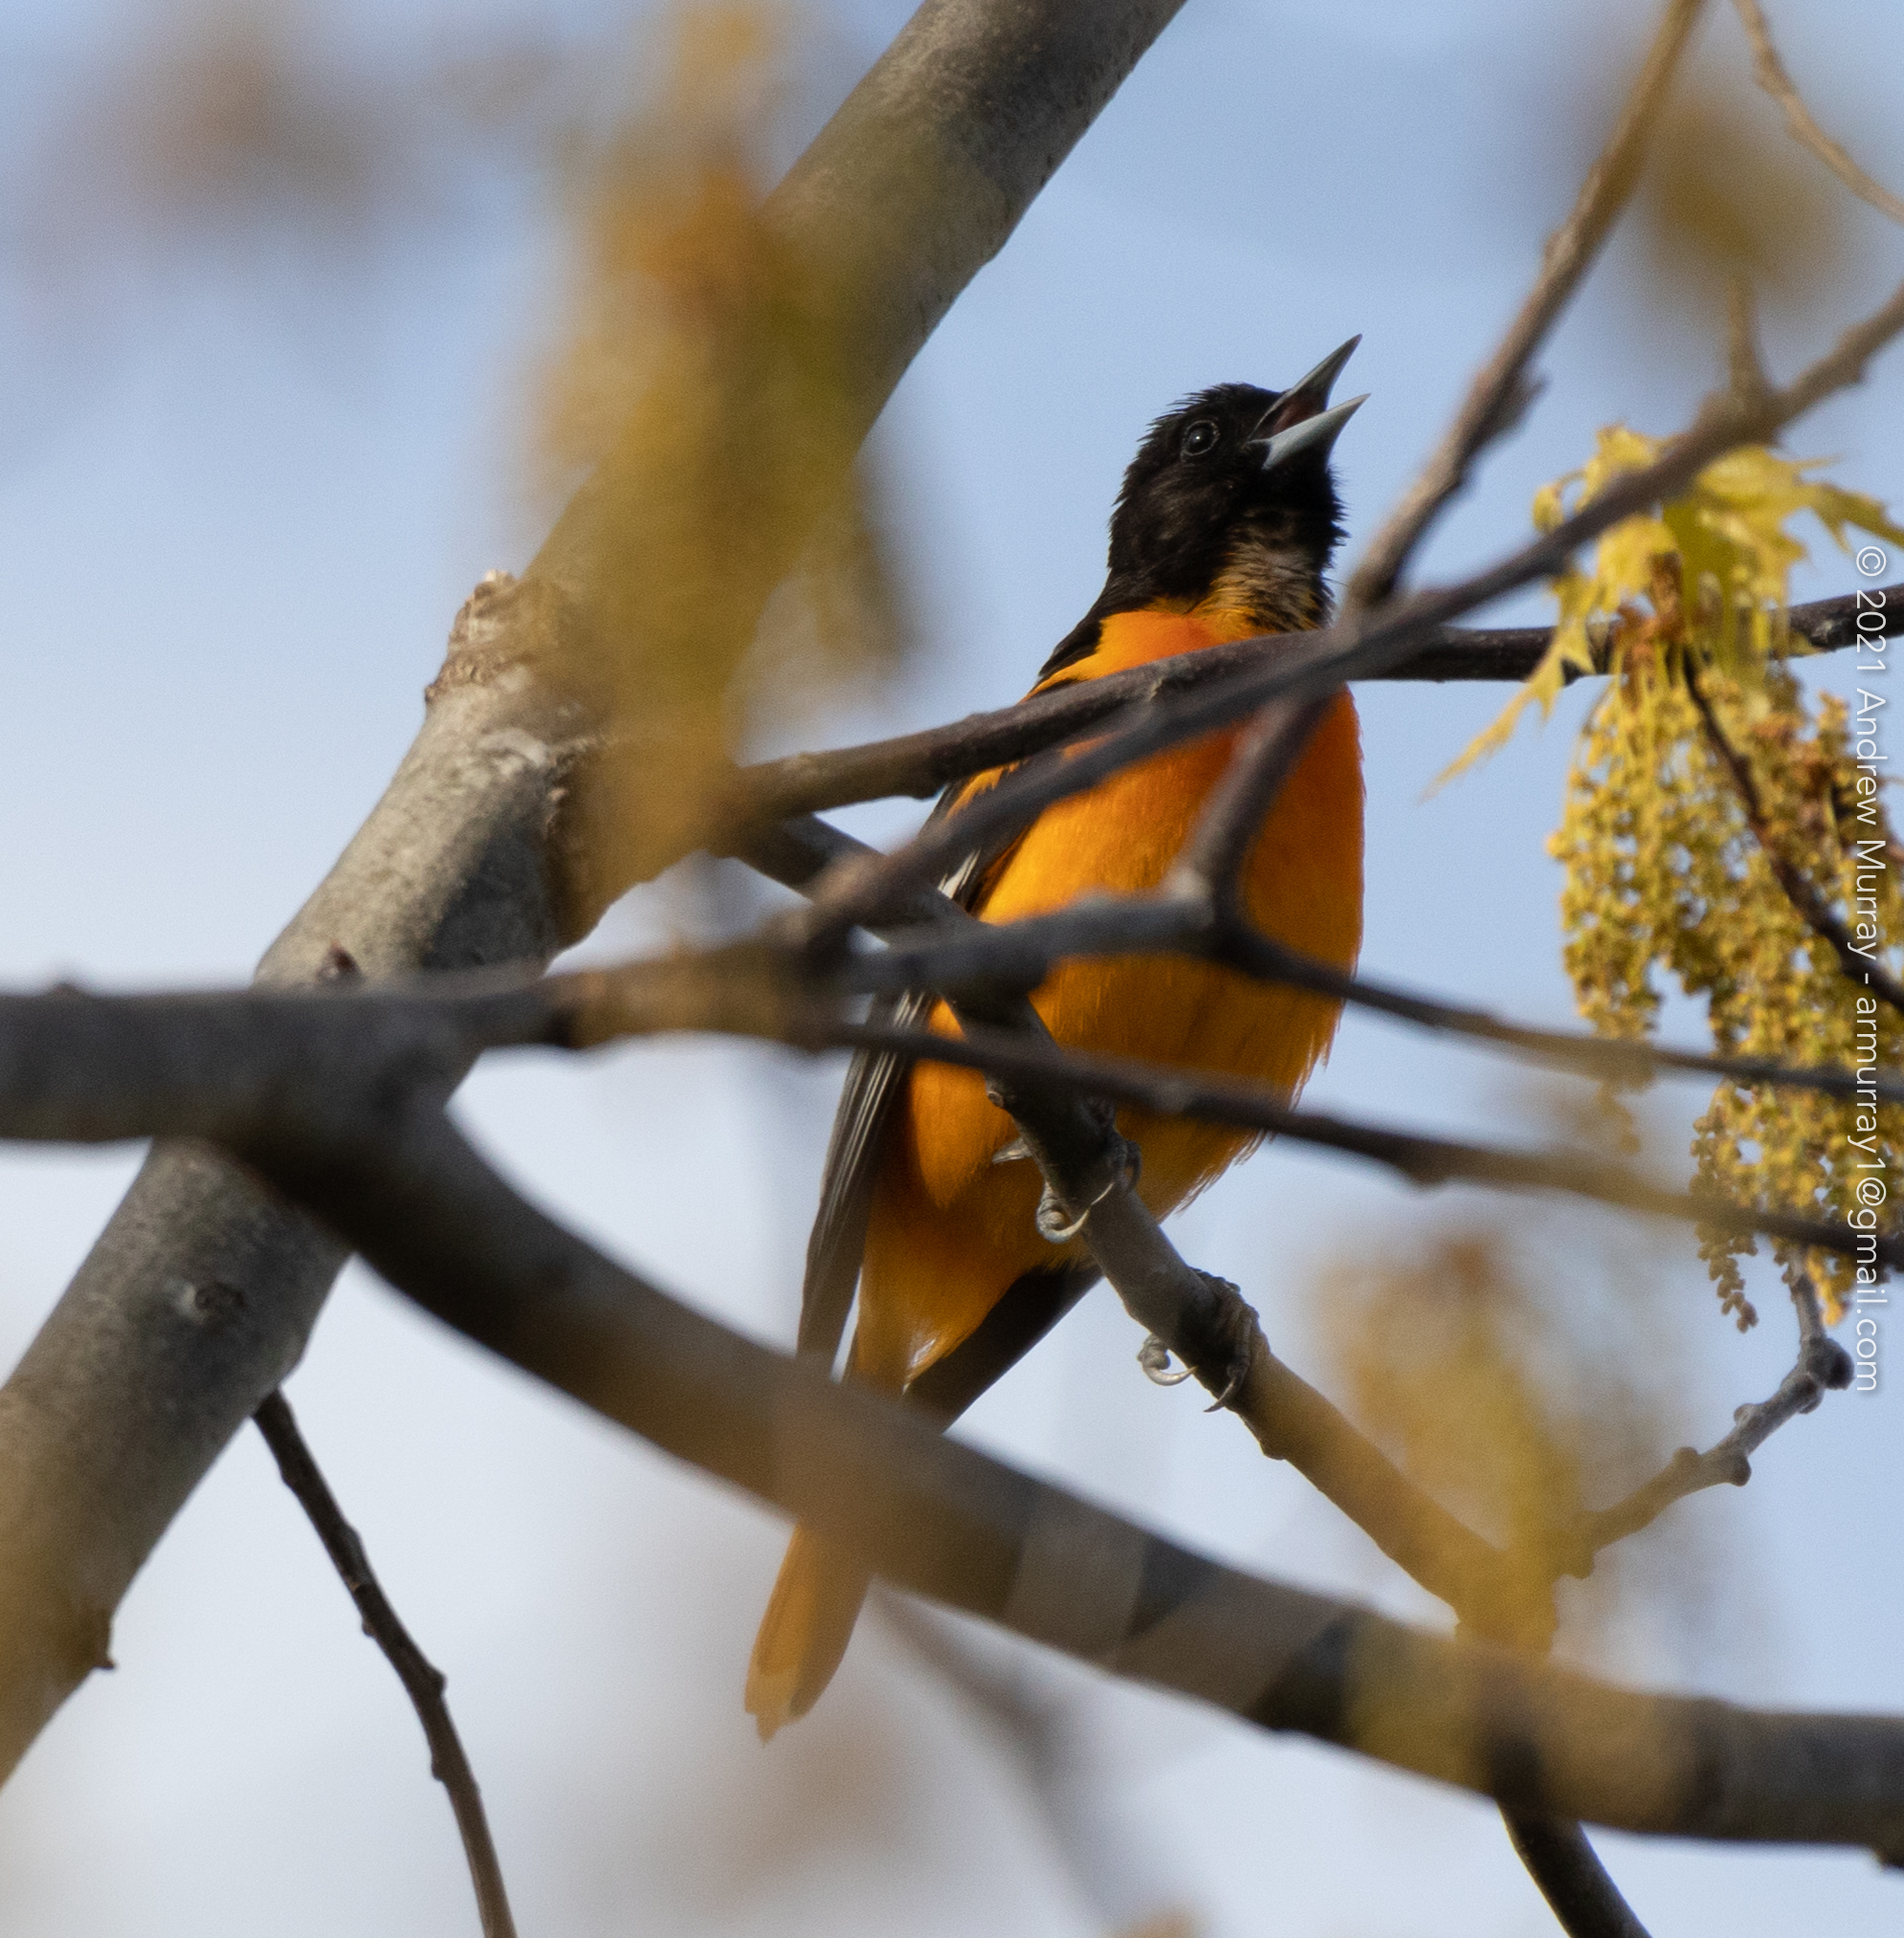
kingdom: Animalia
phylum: Chordata
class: Aves
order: Passeriformes
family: Icteridae
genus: Icterus
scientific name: Icterus galbula
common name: Baltimore oriole
